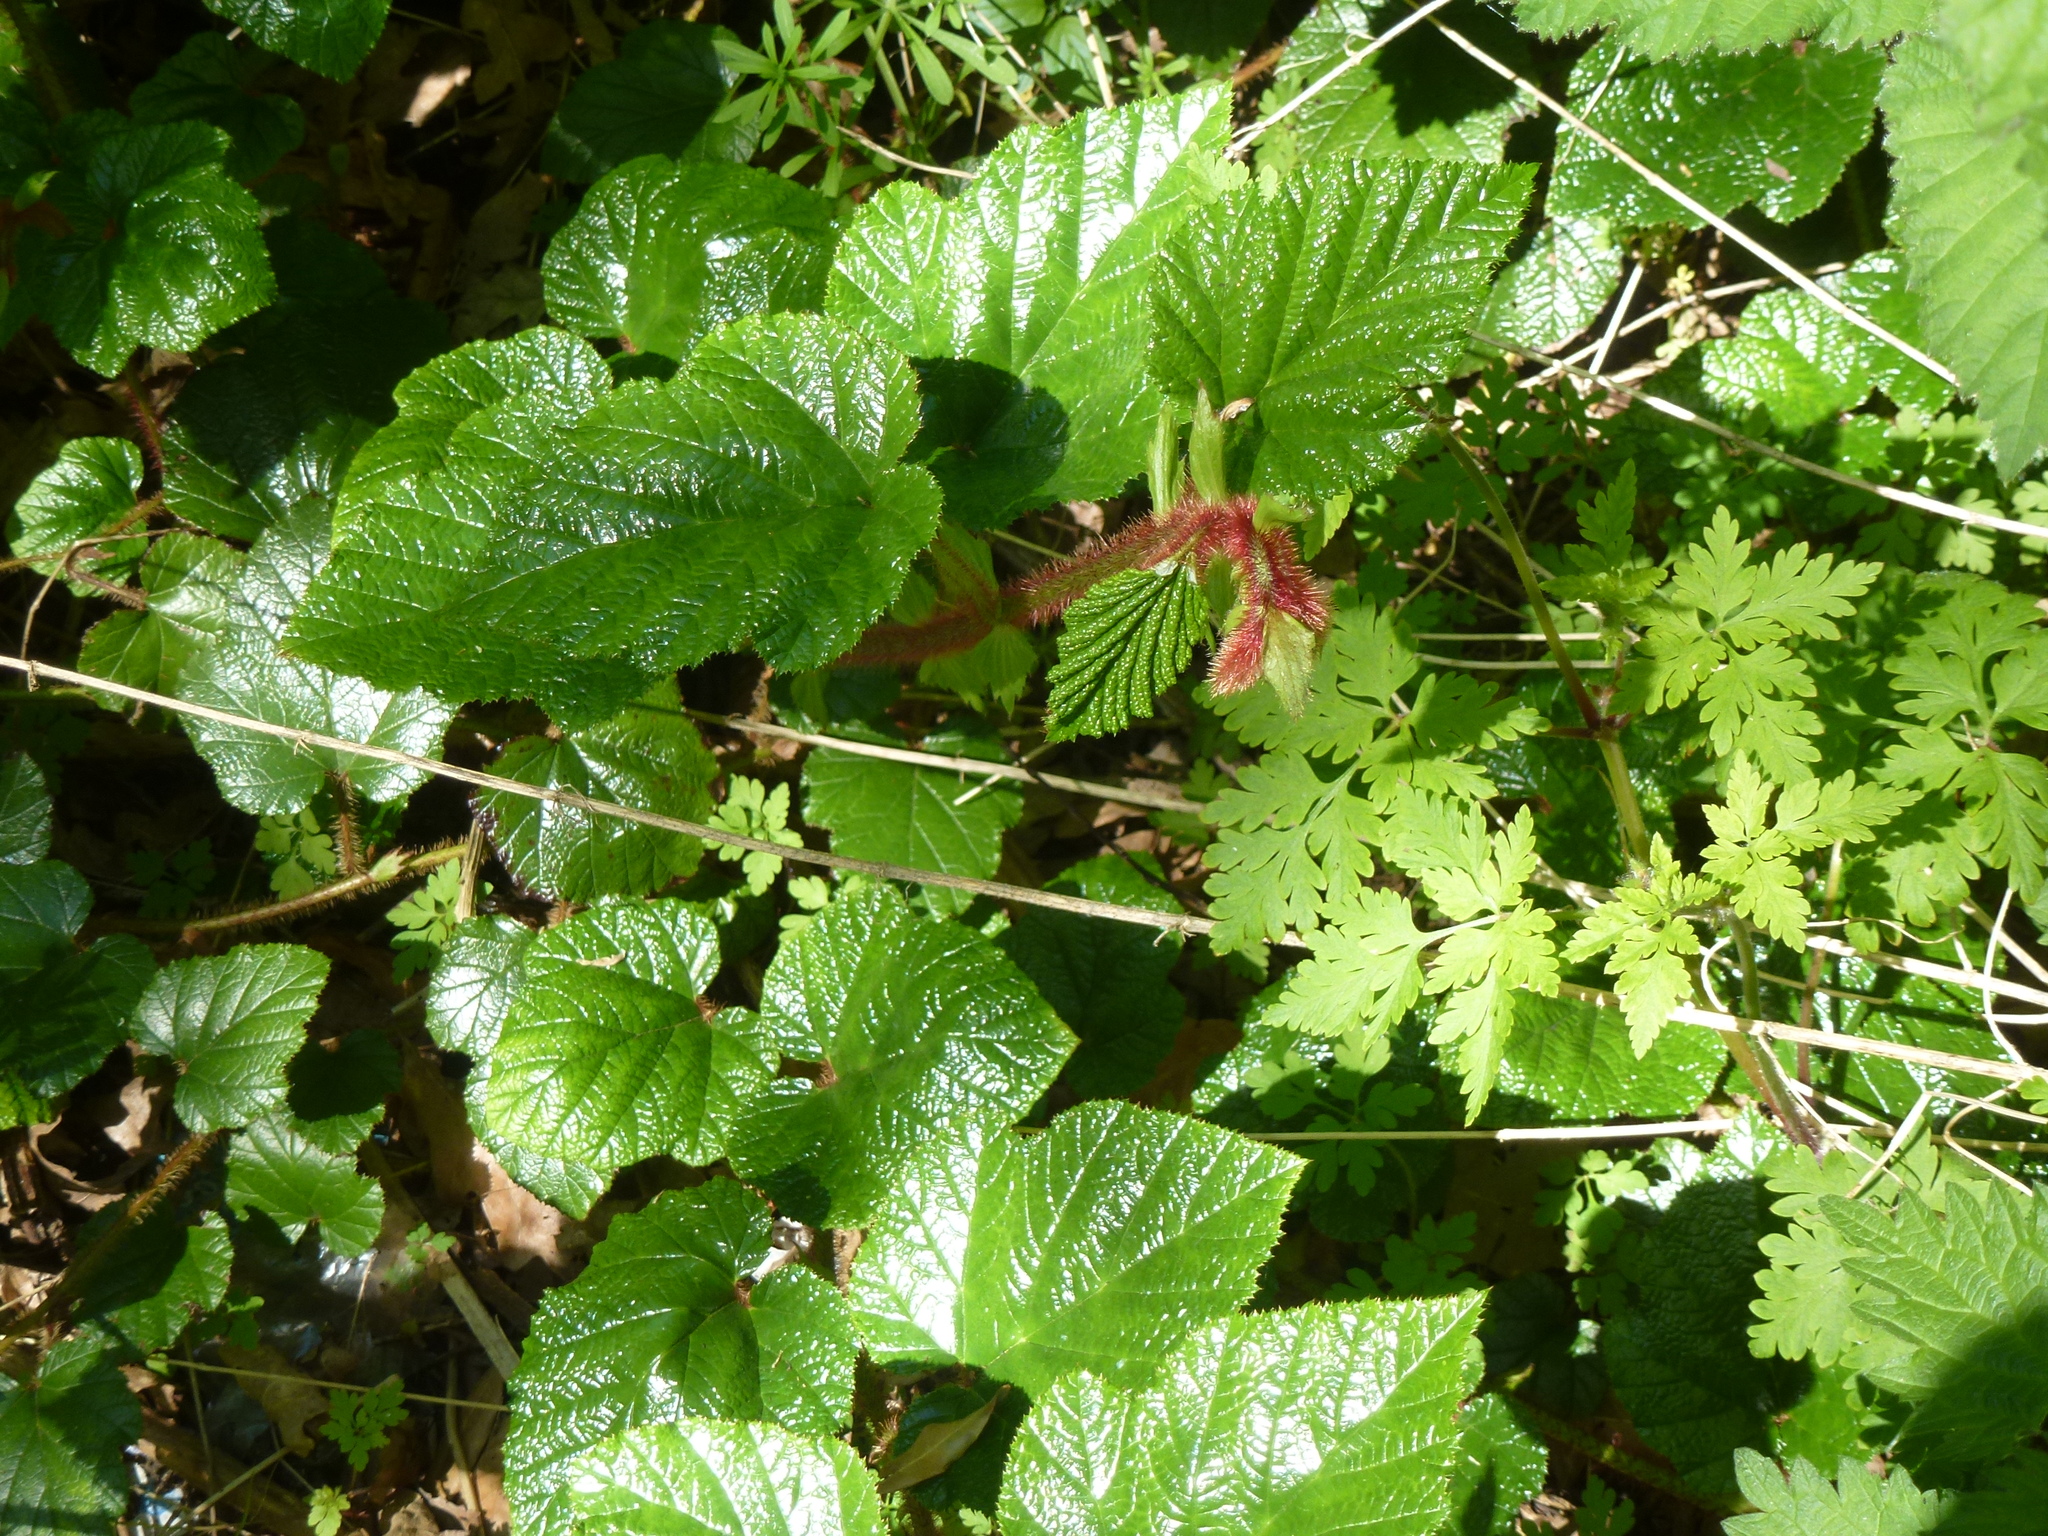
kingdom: Plantae
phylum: Tracheophyta
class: Magnoliopsida
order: Rosales
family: Rosaceae
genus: Rubus
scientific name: Rubus tricolor
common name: Chinese bramble
